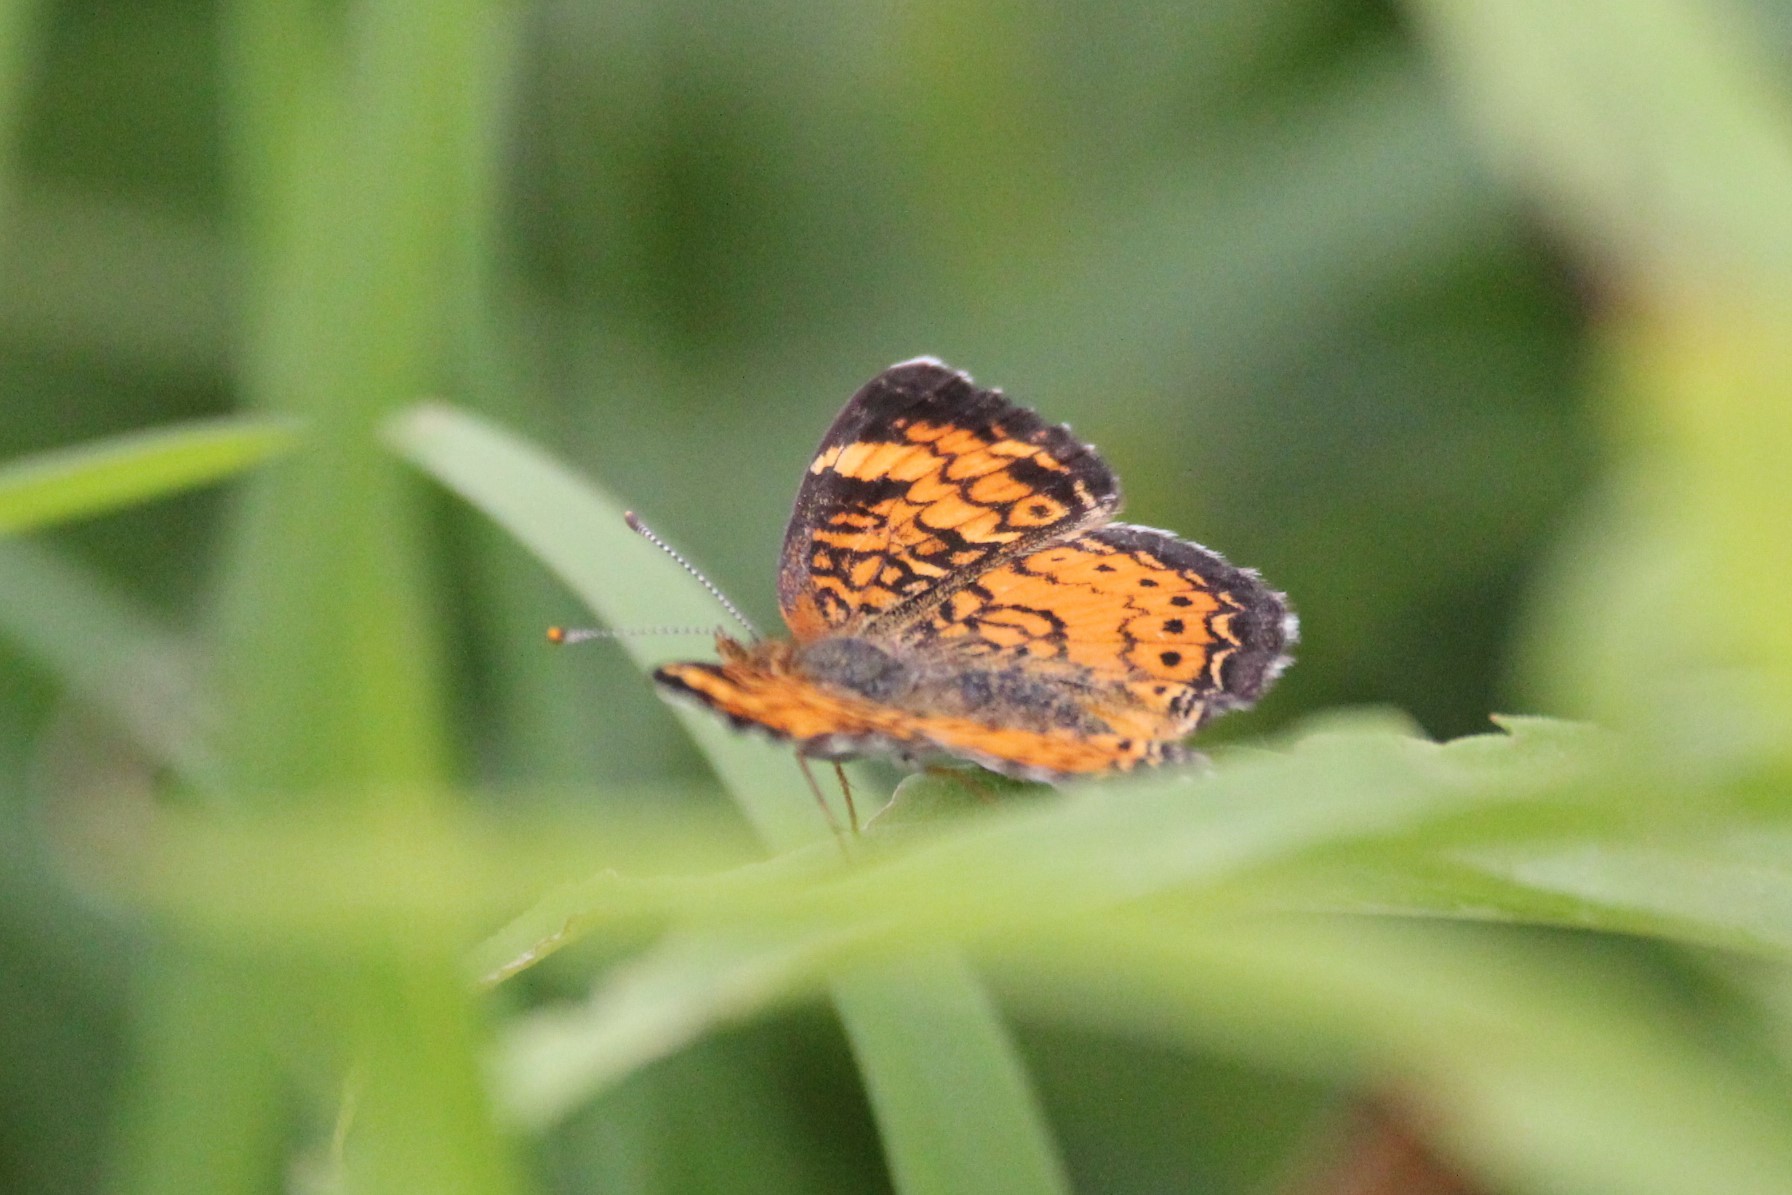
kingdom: Animalia
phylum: Arthropoda
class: Insecta
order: Lepidoptera
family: Nymphalidae
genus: Phyciodes
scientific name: Phyciodes tharos
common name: Pearl crescent
